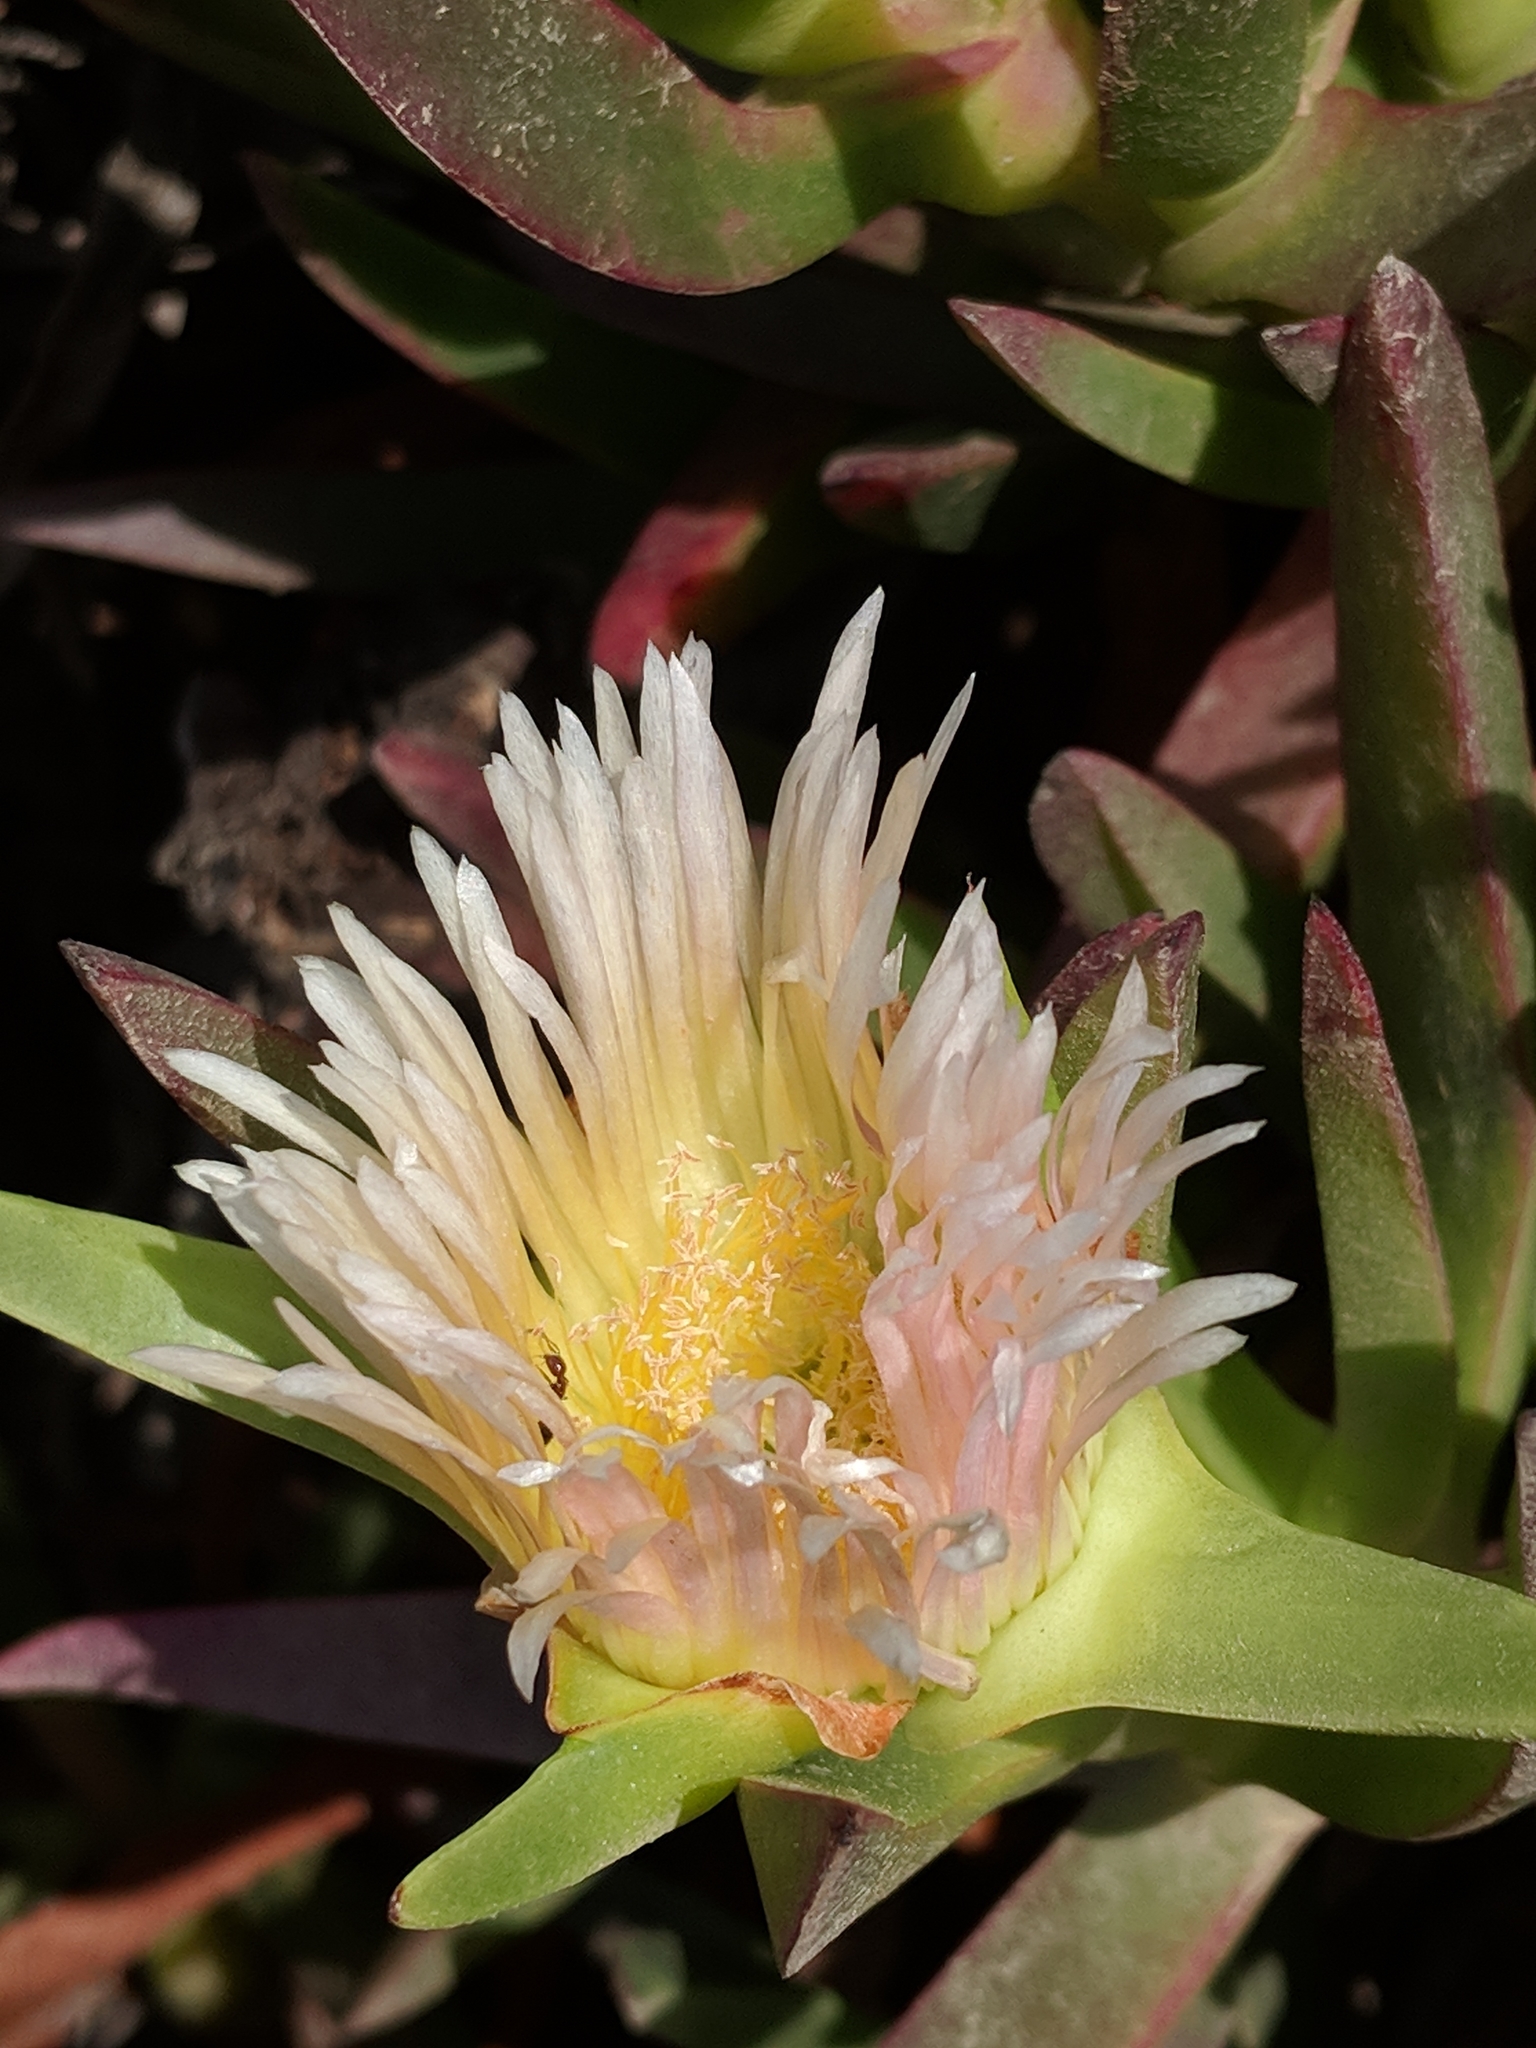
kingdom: Plantae
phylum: Tracheophyta
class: Magnoliopsida
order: Caryophyllales
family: Aizoaceae
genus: Carpobrotus
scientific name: Carpobrotus edulis
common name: Hottentot-fig
